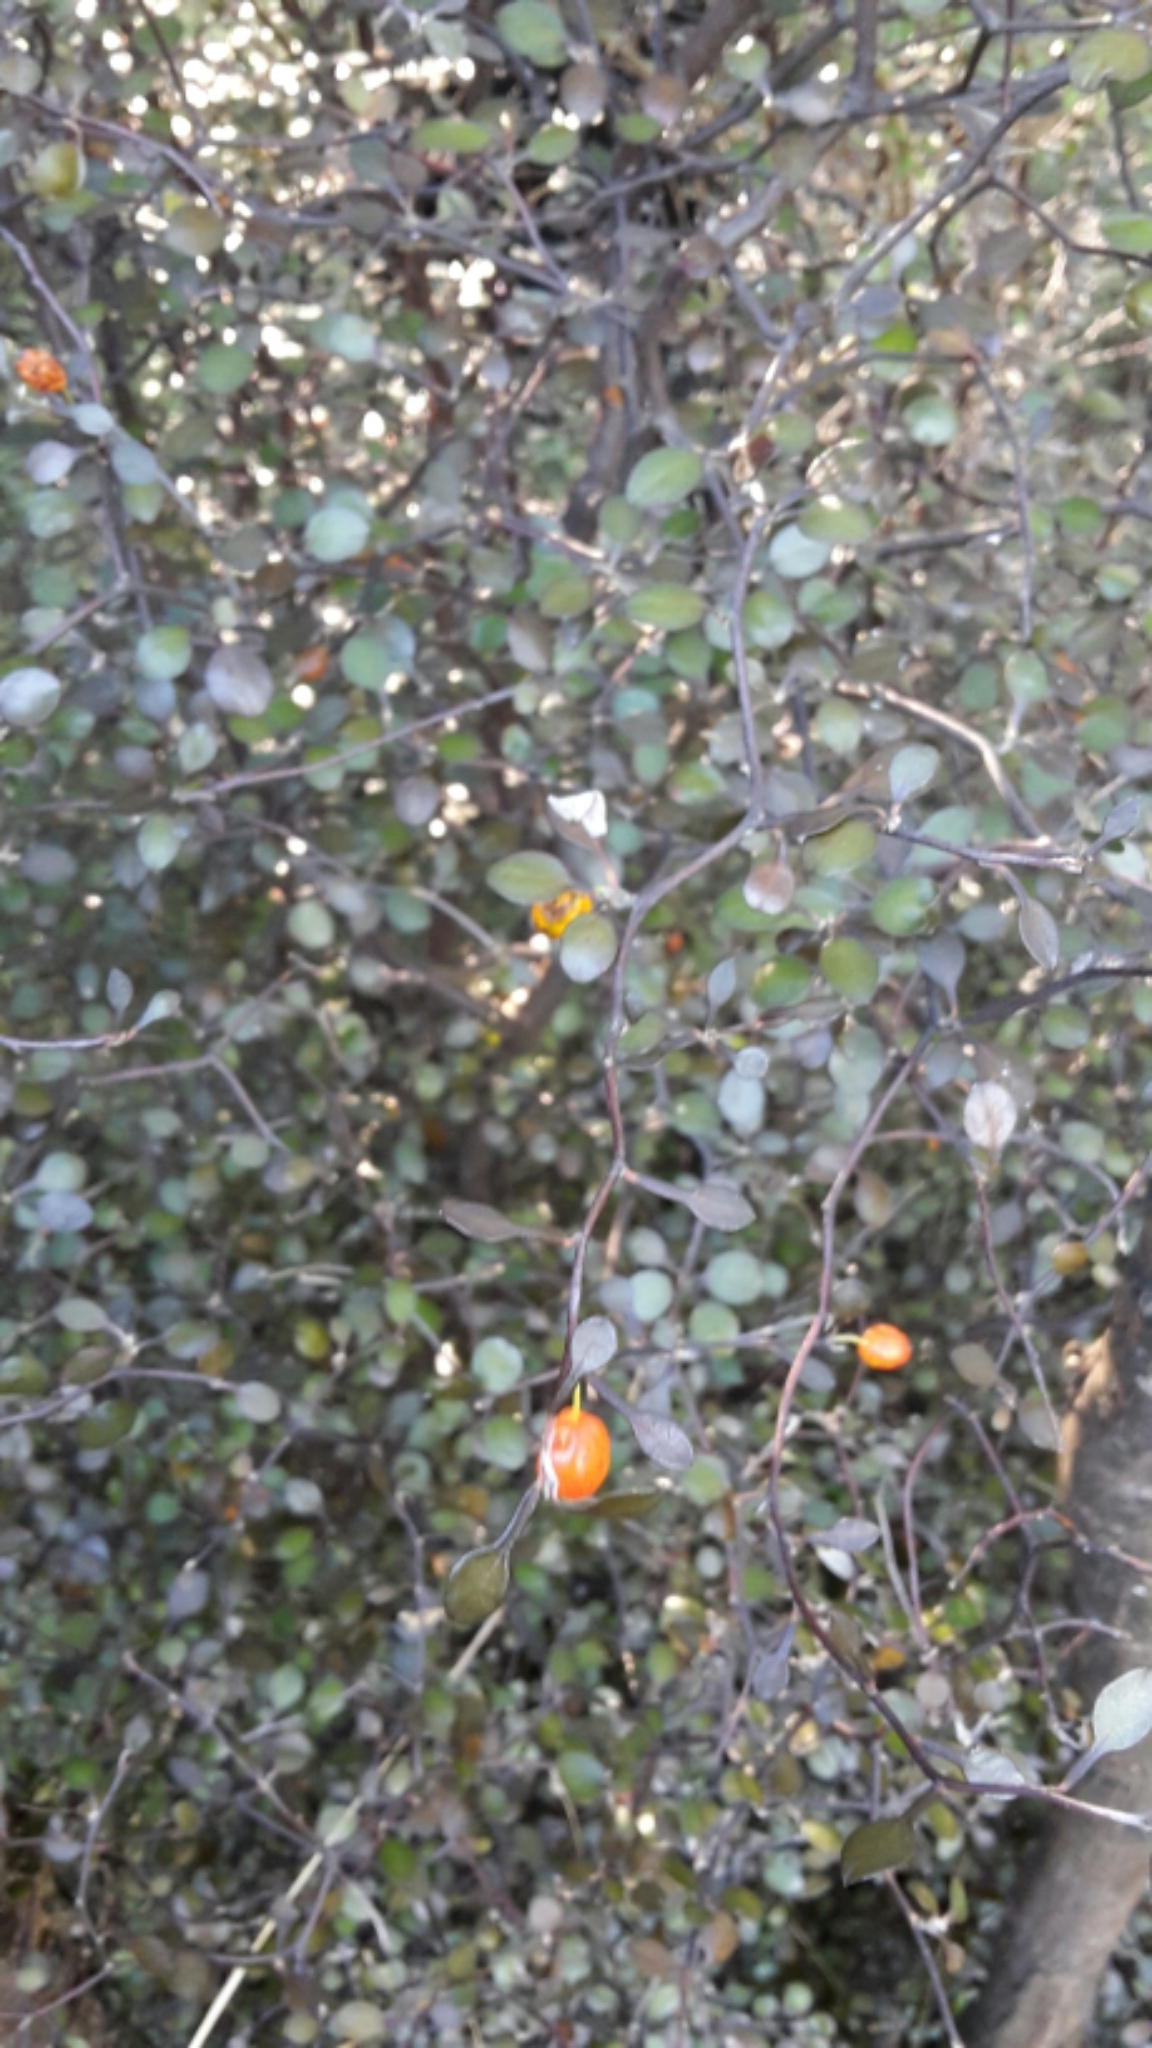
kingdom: Plantae
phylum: Tracheophyta
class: Magnoliopsida
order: Asterales
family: Argophyllaceae
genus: Corokia
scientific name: Corokia cotoneaster
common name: Wire nettingbush
